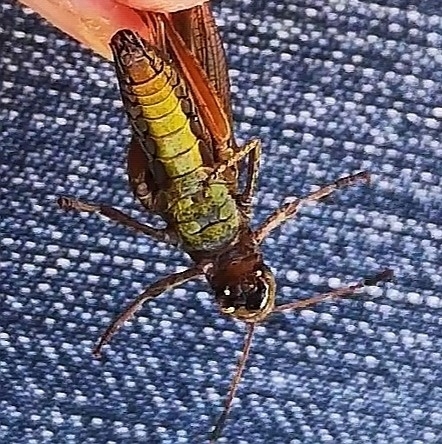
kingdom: Animalia
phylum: Arthropoda
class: Insecta
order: Orthoptera
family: Acrididae
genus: Gomphocerippus
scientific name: Gomphocerippus rufus
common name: Rufous grasshopper
